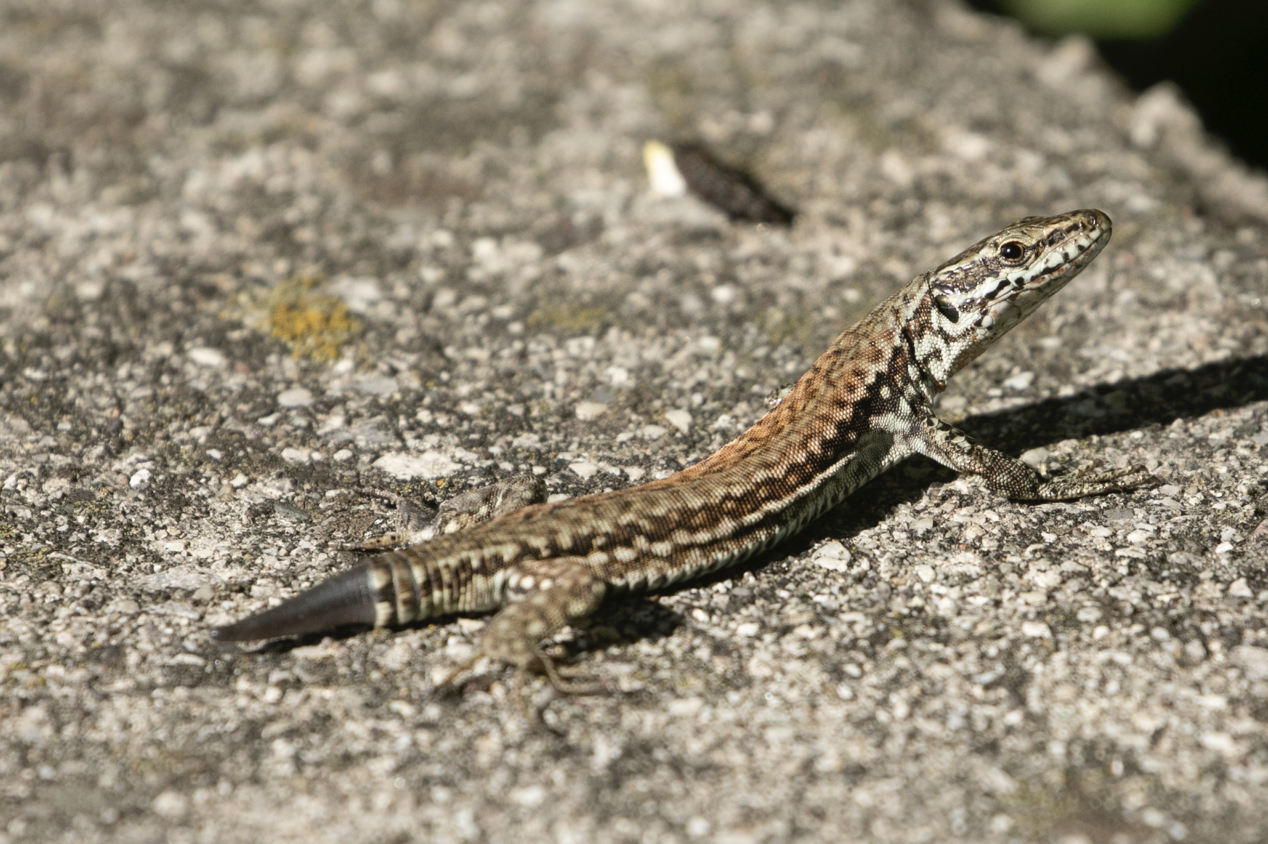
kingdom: Animalia
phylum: Chordata
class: Squamata
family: Lacertidae
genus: Podarcis
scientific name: Podarcis muralis
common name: Common wall lizard
